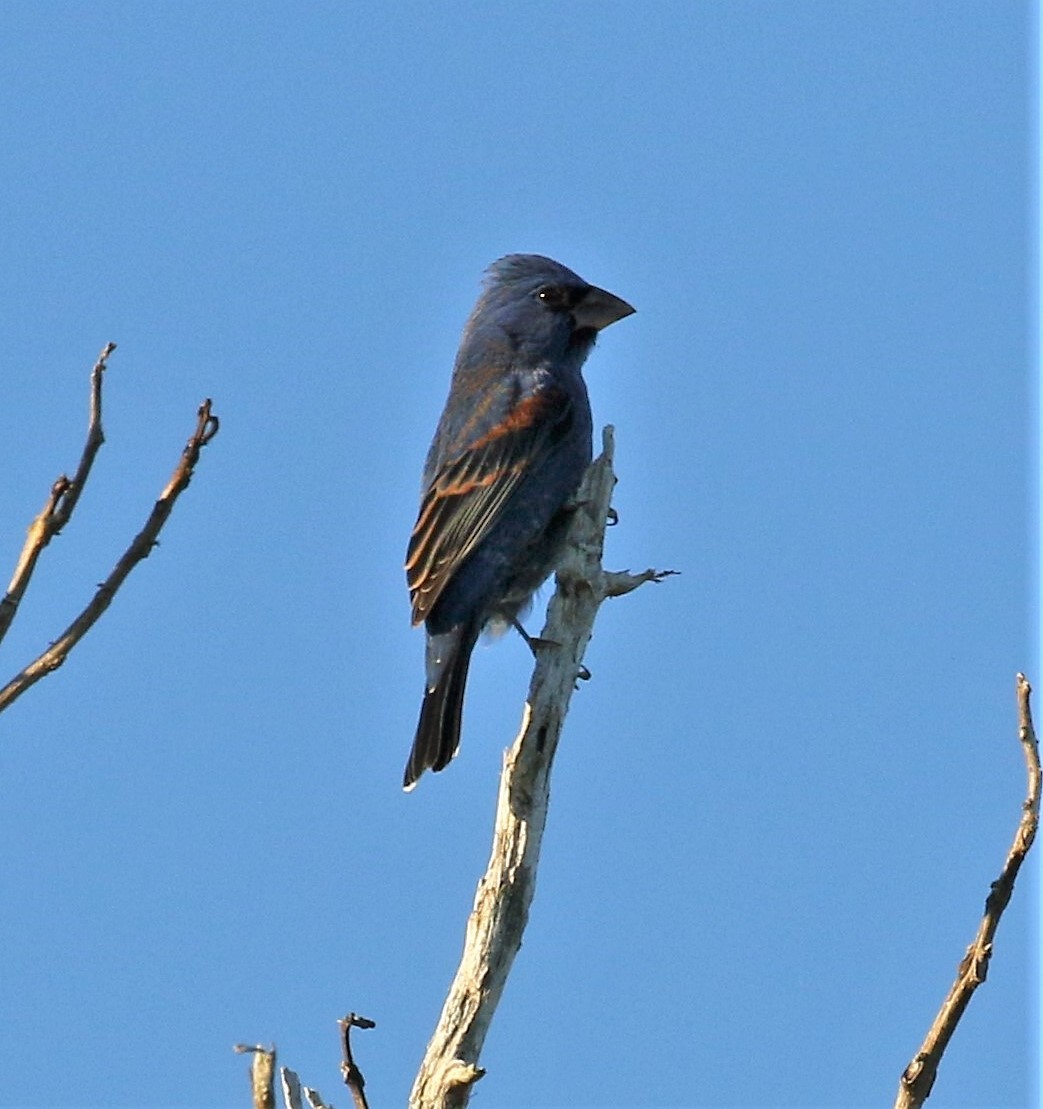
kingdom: Animalia
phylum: Chordata
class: Aves
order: Passeriformes
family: Cardinalidae
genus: Passerina
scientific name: Passerina caerulea
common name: Blue grosbeak
